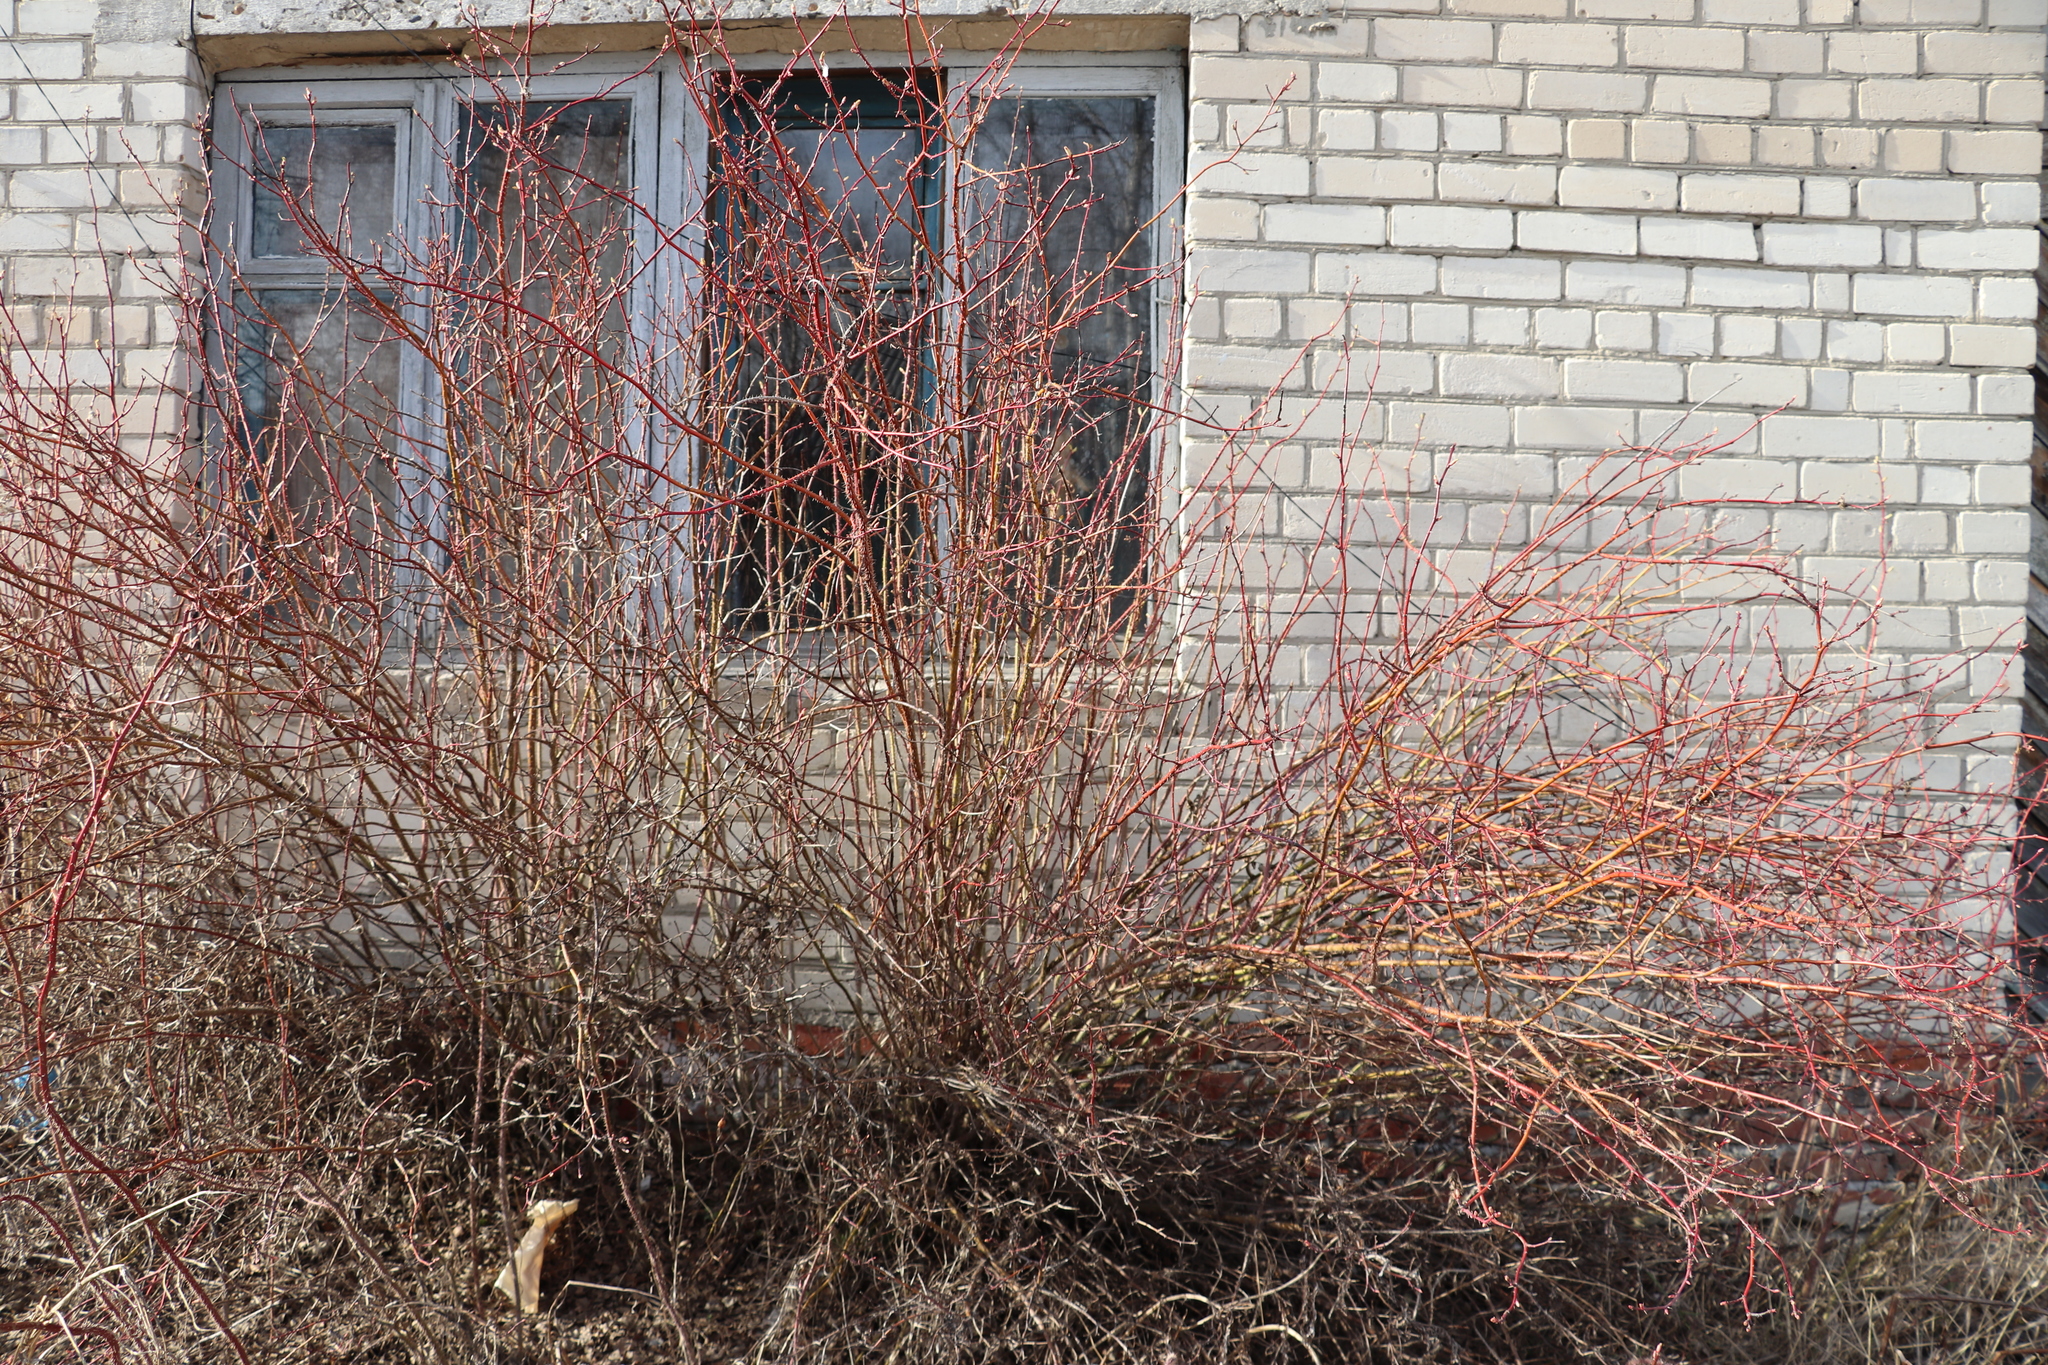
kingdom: Plantae
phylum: Tracheophyta
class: Magnoliopsida
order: Rosales
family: Rosaceae
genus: Rosa
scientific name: Rosa majalis
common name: Cinnamon rose
